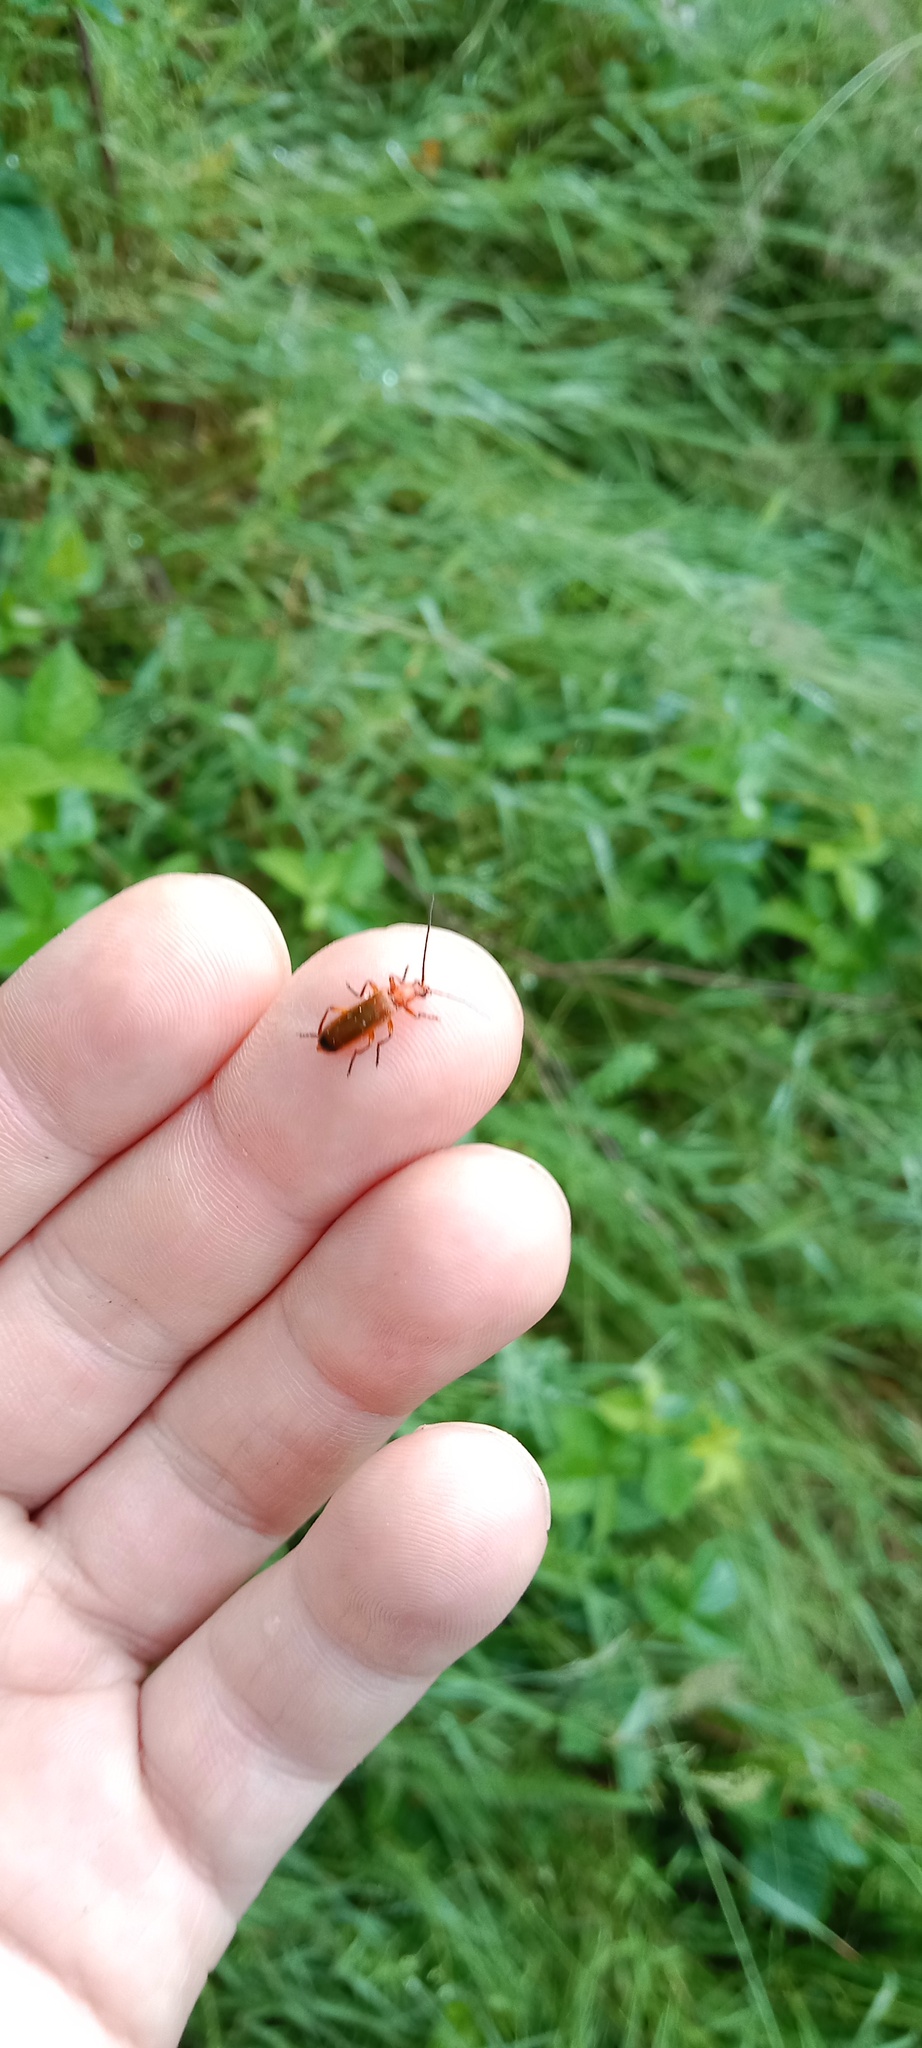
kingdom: Animalia
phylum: Arthropoda
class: Insecta
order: Coleoptera
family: Cantharidae
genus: Rhagonycha
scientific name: Rhagonycha fulva
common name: Common red soldier beetle
